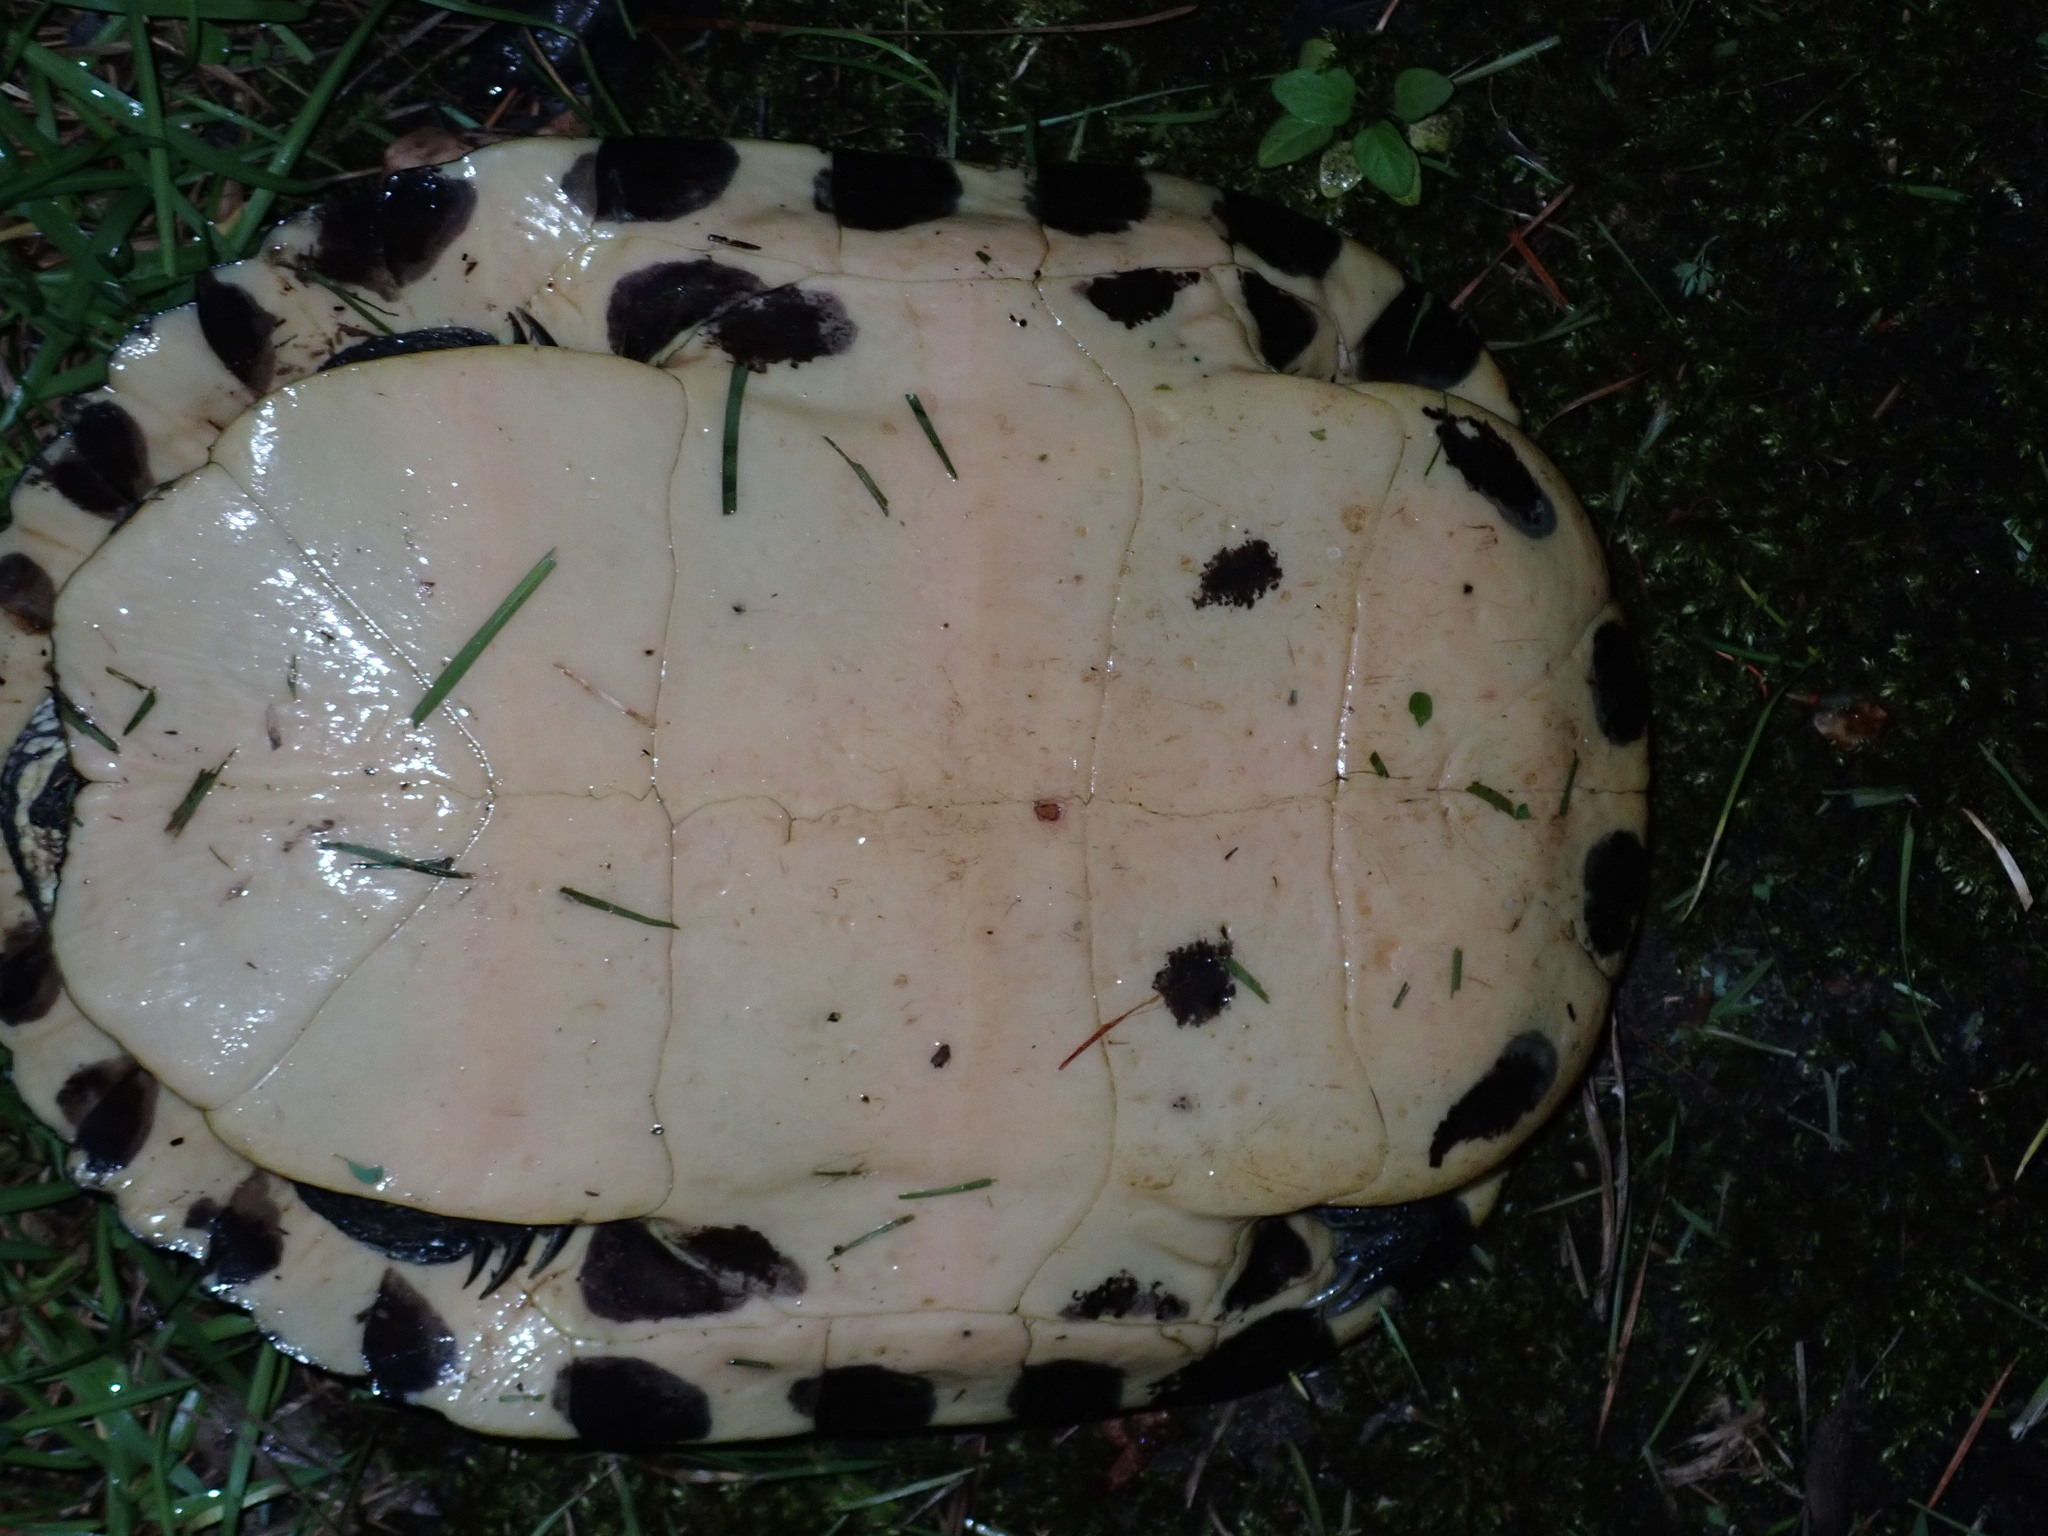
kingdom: Animalia
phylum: Chordata
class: Testudines
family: Emydidae
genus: Trachemys
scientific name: Trachemys scripta
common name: Slider
